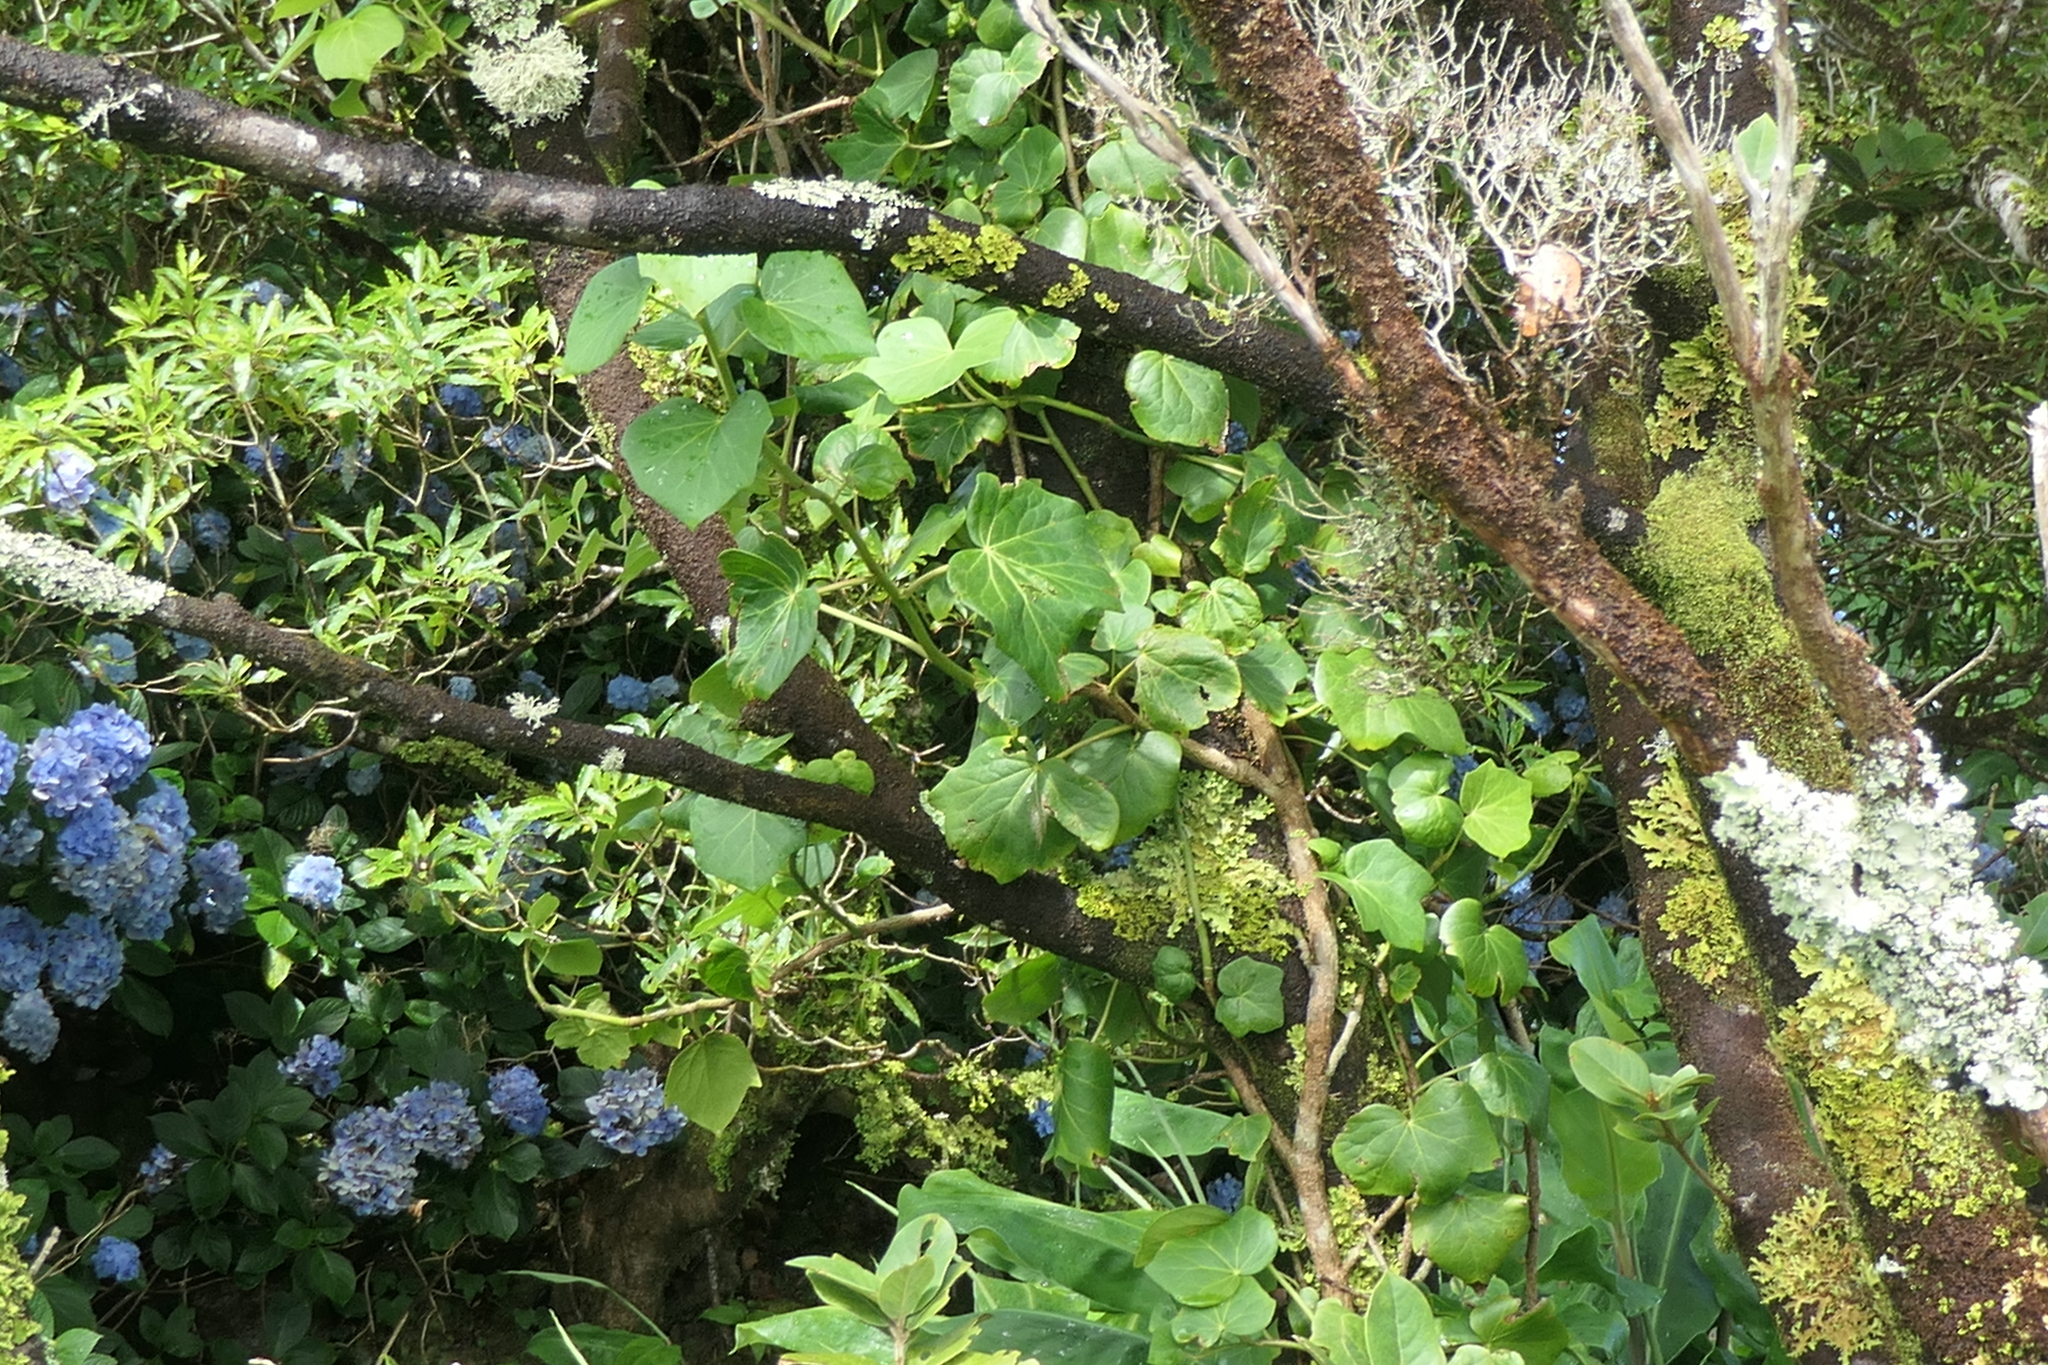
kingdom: Plantae
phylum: Tracheophyta
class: Magnoliopsida
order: Apiales
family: Araliaceae
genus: Hedera
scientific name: Hedera azorica
